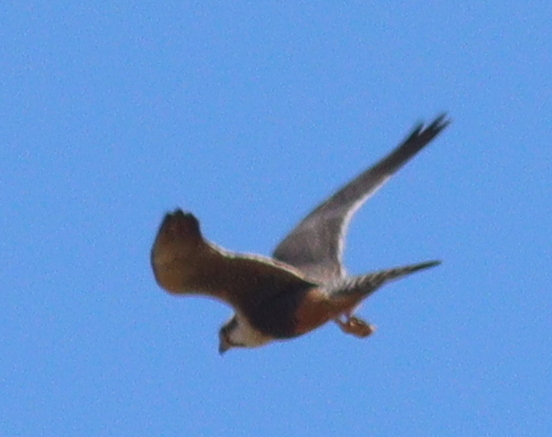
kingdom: Animalia
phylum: Chordata
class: Aves
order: Falconiformes
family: Falconidae
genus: Falco
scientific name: Falco femoralis
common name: Aplomado falcon
